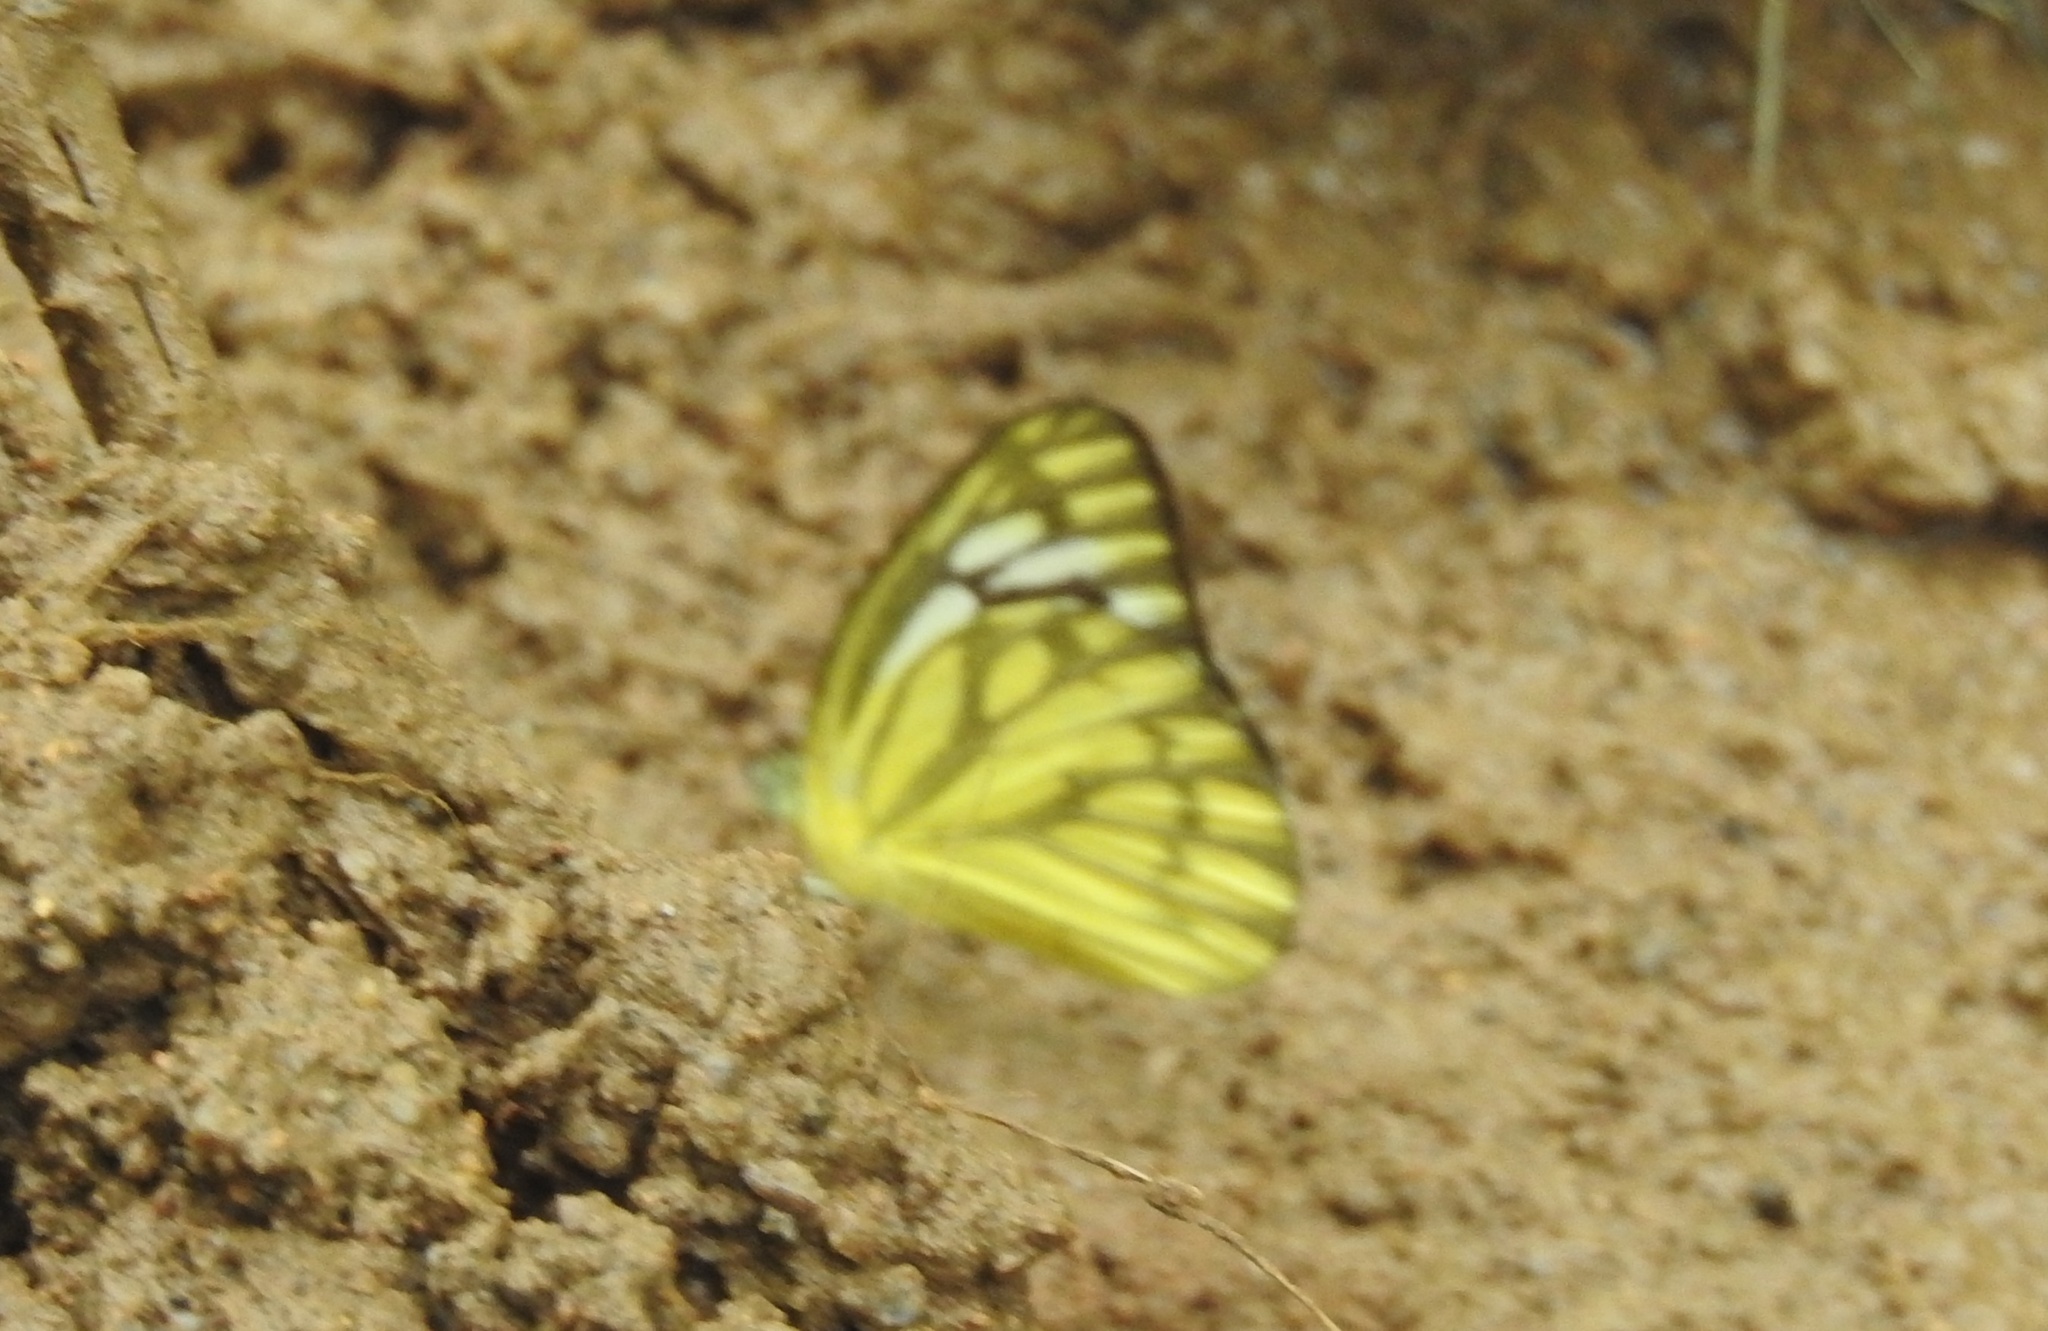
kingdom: Animalia
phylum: Arthropoda
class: Insecta
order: Lepidoptera
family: Pieridae
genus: Cepora
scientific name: Cepora nerissa
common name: Common gull
